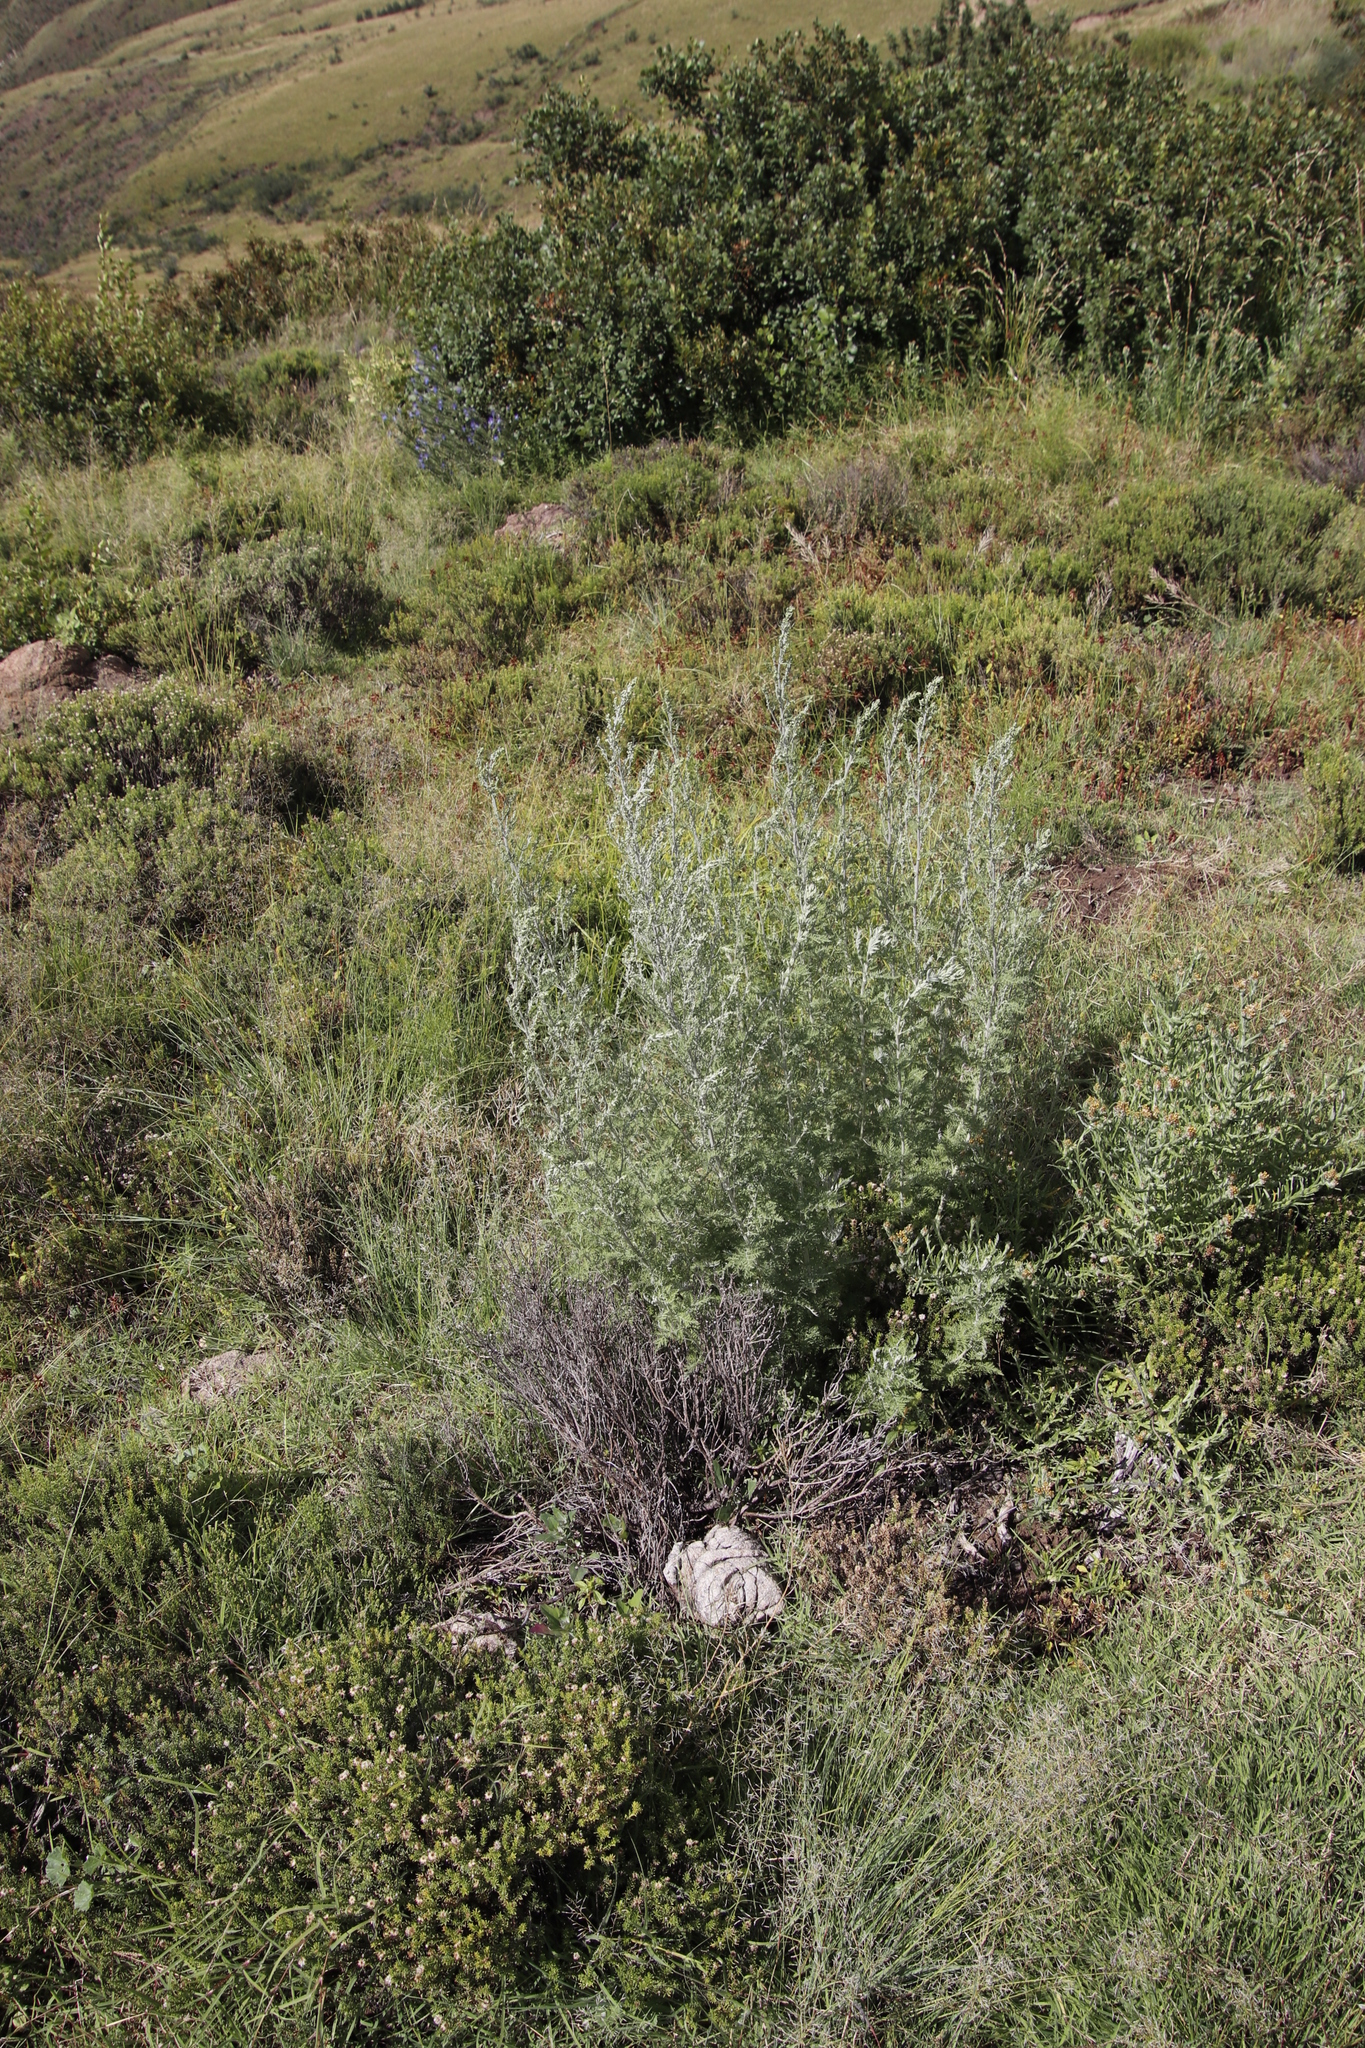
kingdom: Plantae
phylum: Tracheophyta
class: Magnoliopsida
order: Asterales
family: Asteraceae
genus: Artemisia
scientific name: Artemisia afra
